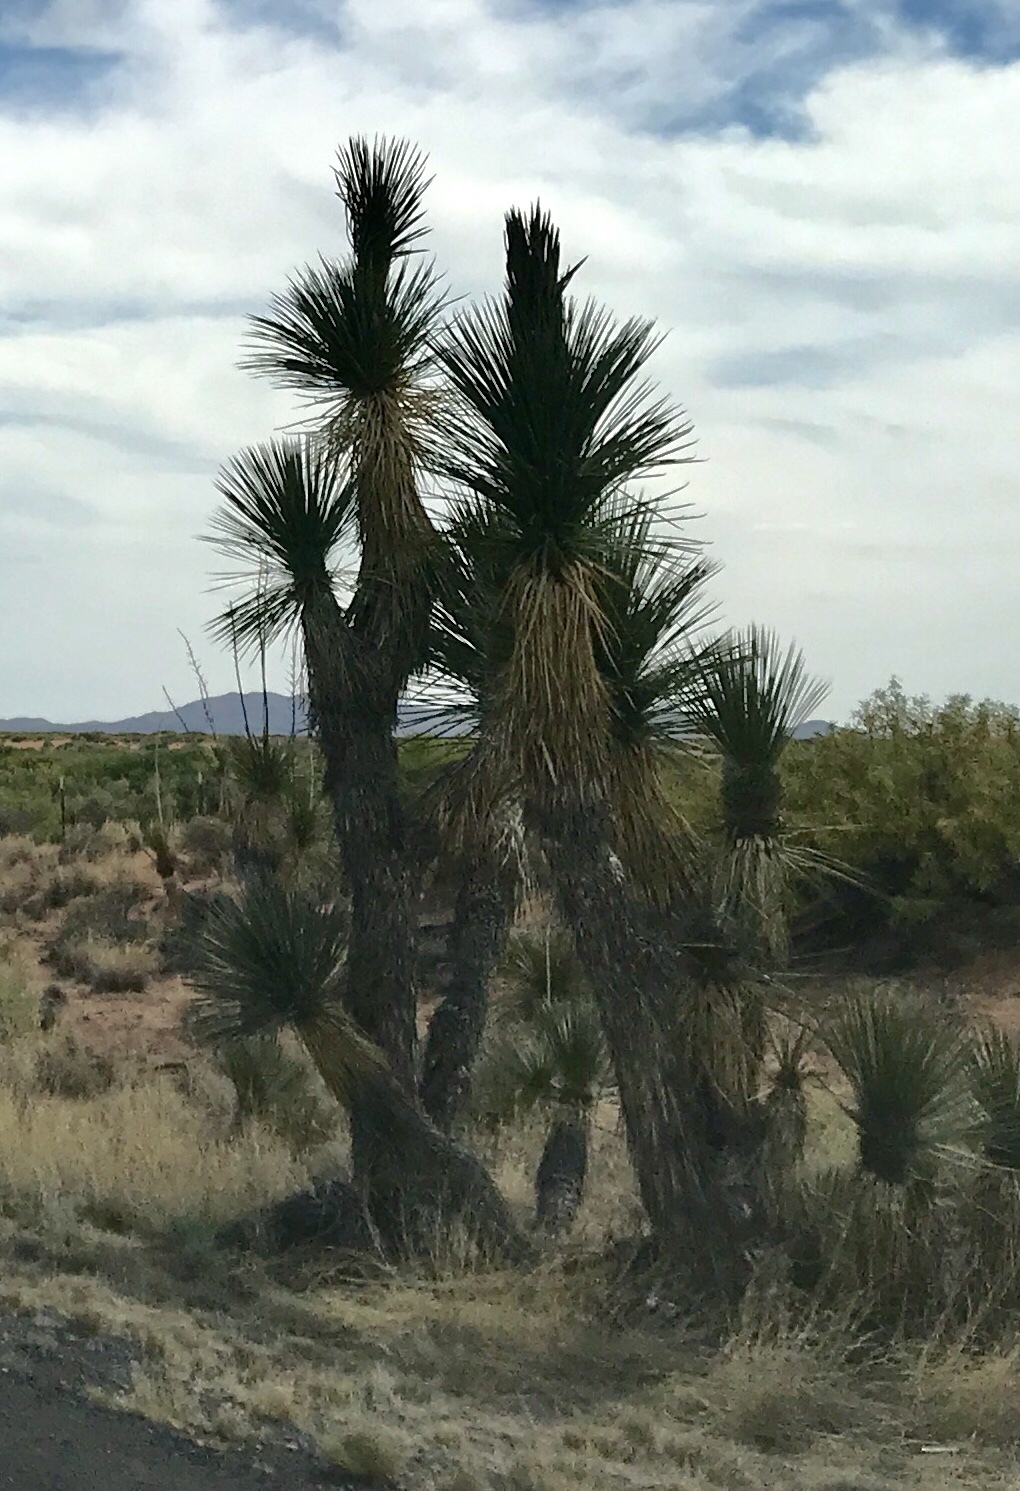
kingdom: Plantae
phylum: Tracheophyta
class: Liliopsida
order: Asparagales
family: Asparagaceae
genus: Yucca
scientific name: Yucca elata
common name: Palmella
